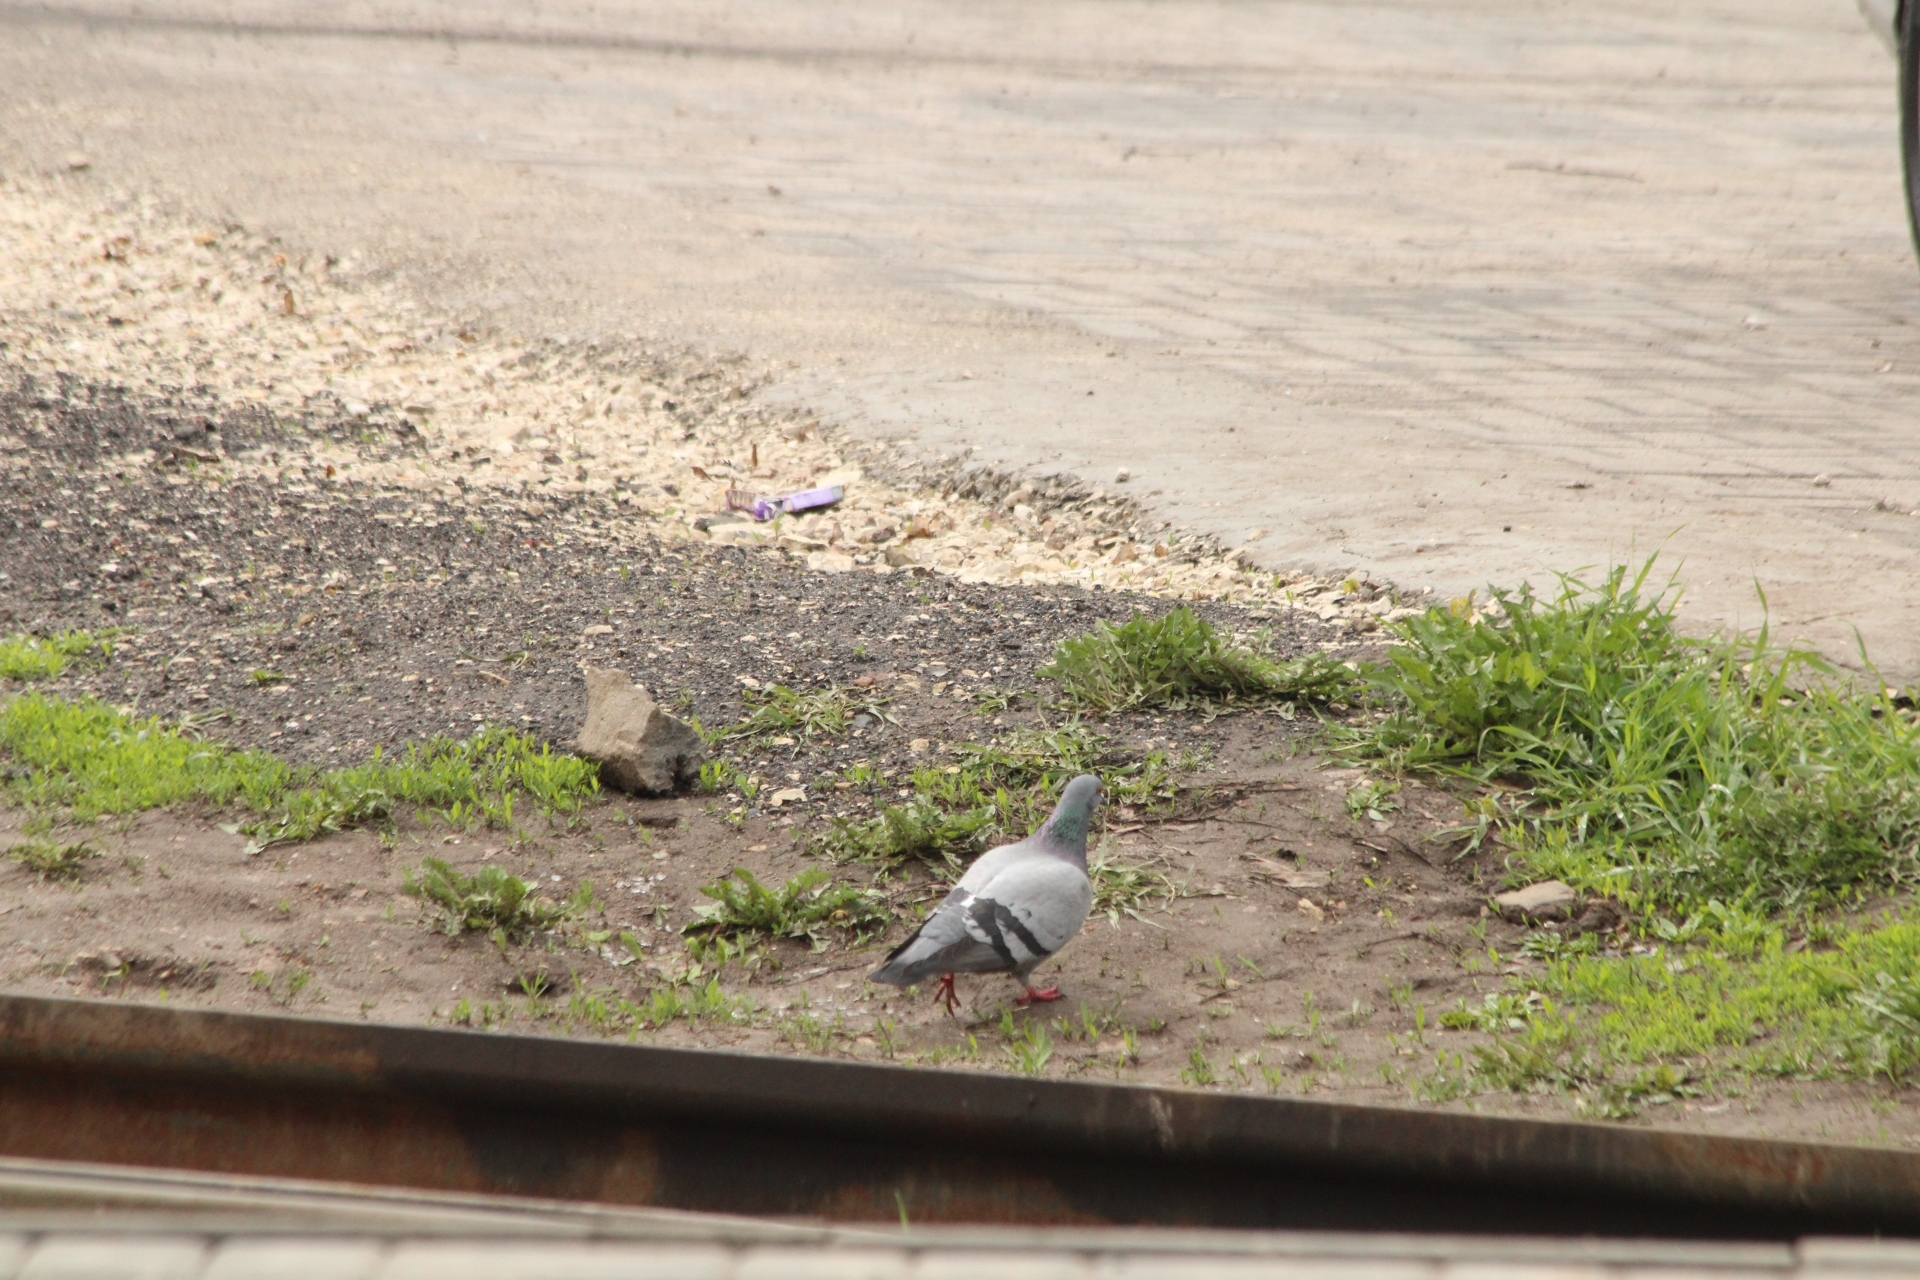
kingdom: Animalia
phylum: Chordata
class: Aves
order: Columbiformes
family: Columbidae
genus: Columba
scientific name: Columba livia
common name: Rock pigeon
